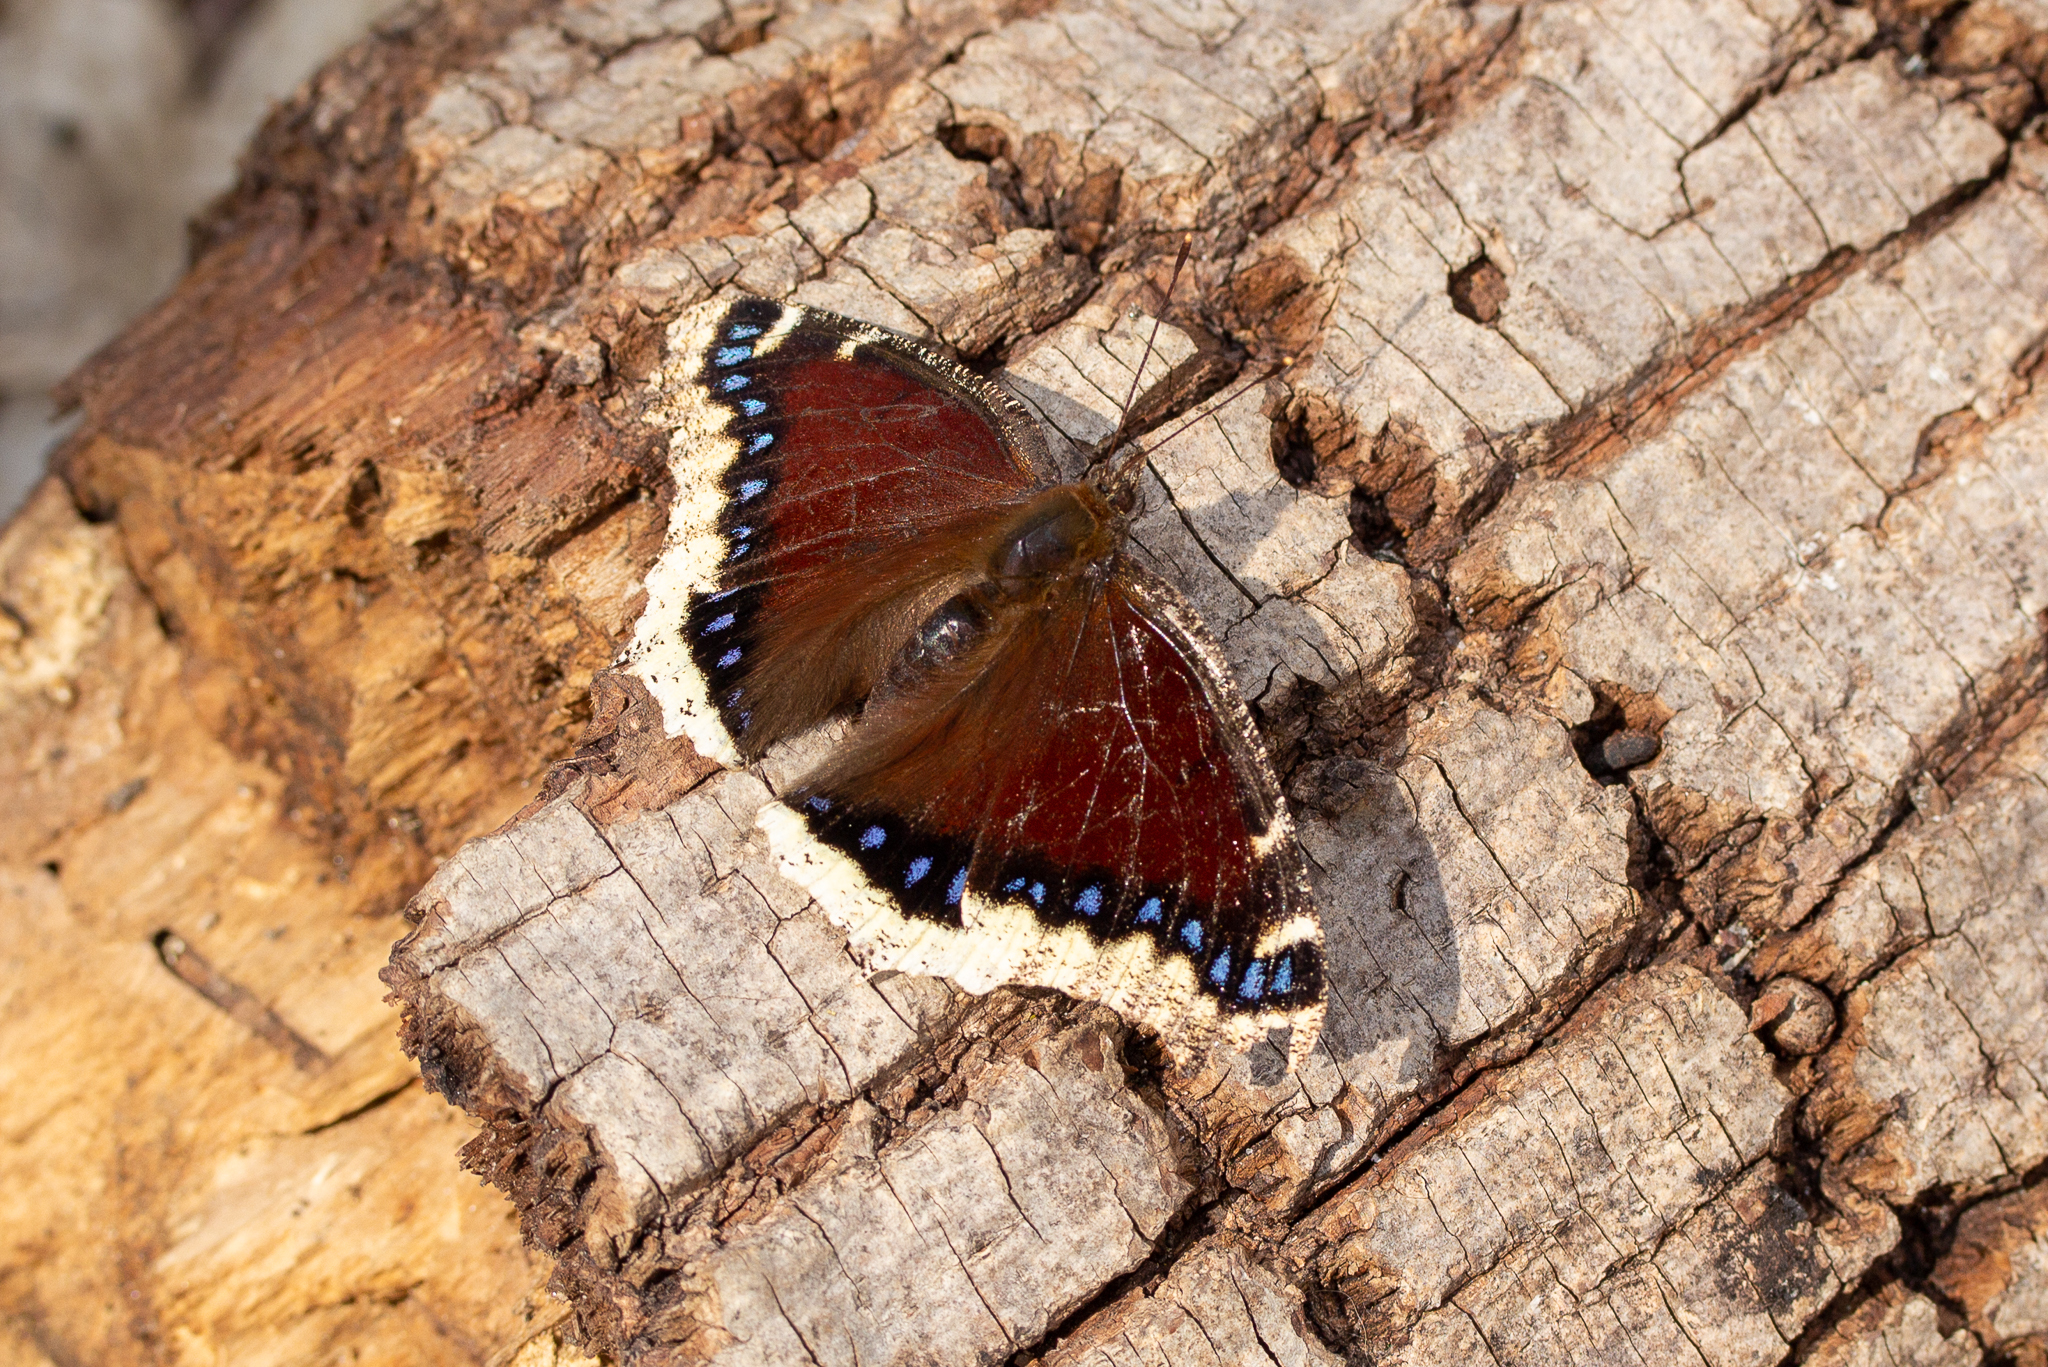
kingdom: Animalia
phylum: Arthropoda
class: Insecta
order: Lepidoptera
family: Nymphalidae
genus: Nymphalis
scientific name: Nymphalis antiopa
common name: Camberwell beauty
